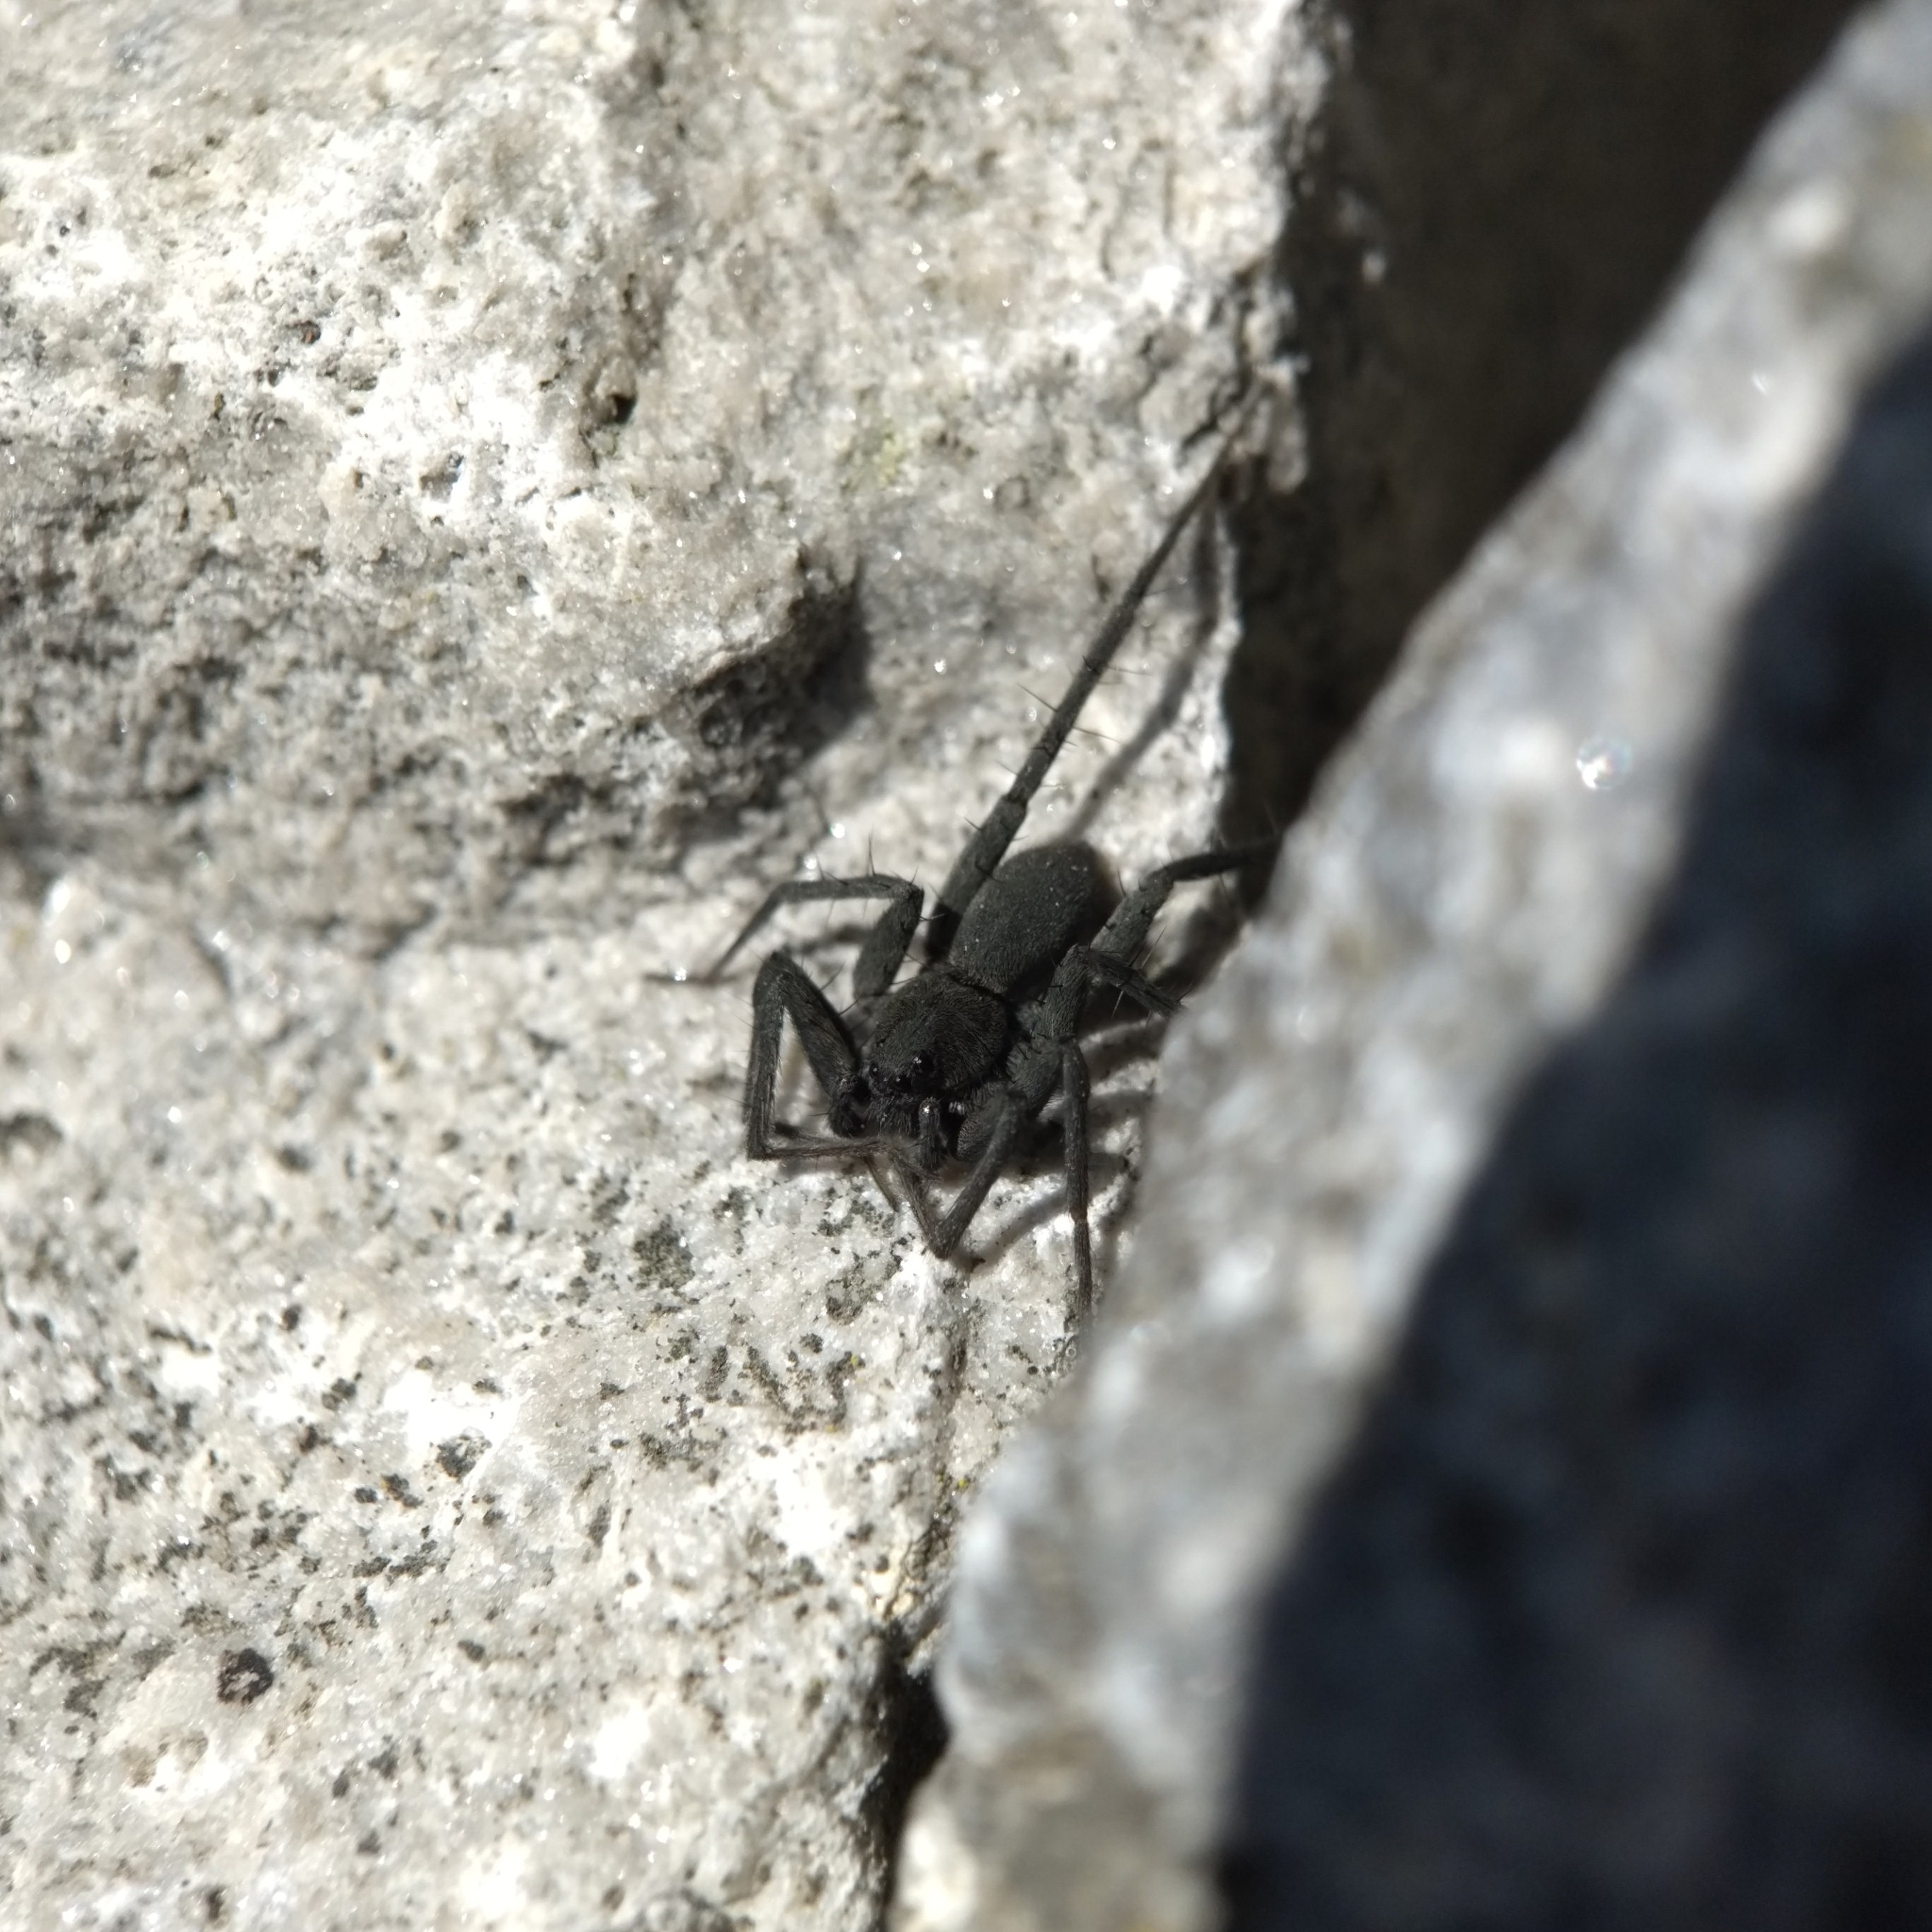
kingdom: Animalia
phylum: Arthropoda
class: Arachnida
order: Araneae
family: Lycosidae
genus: Pardosa
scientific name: Pardosa lapidicina
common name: Stone spider
